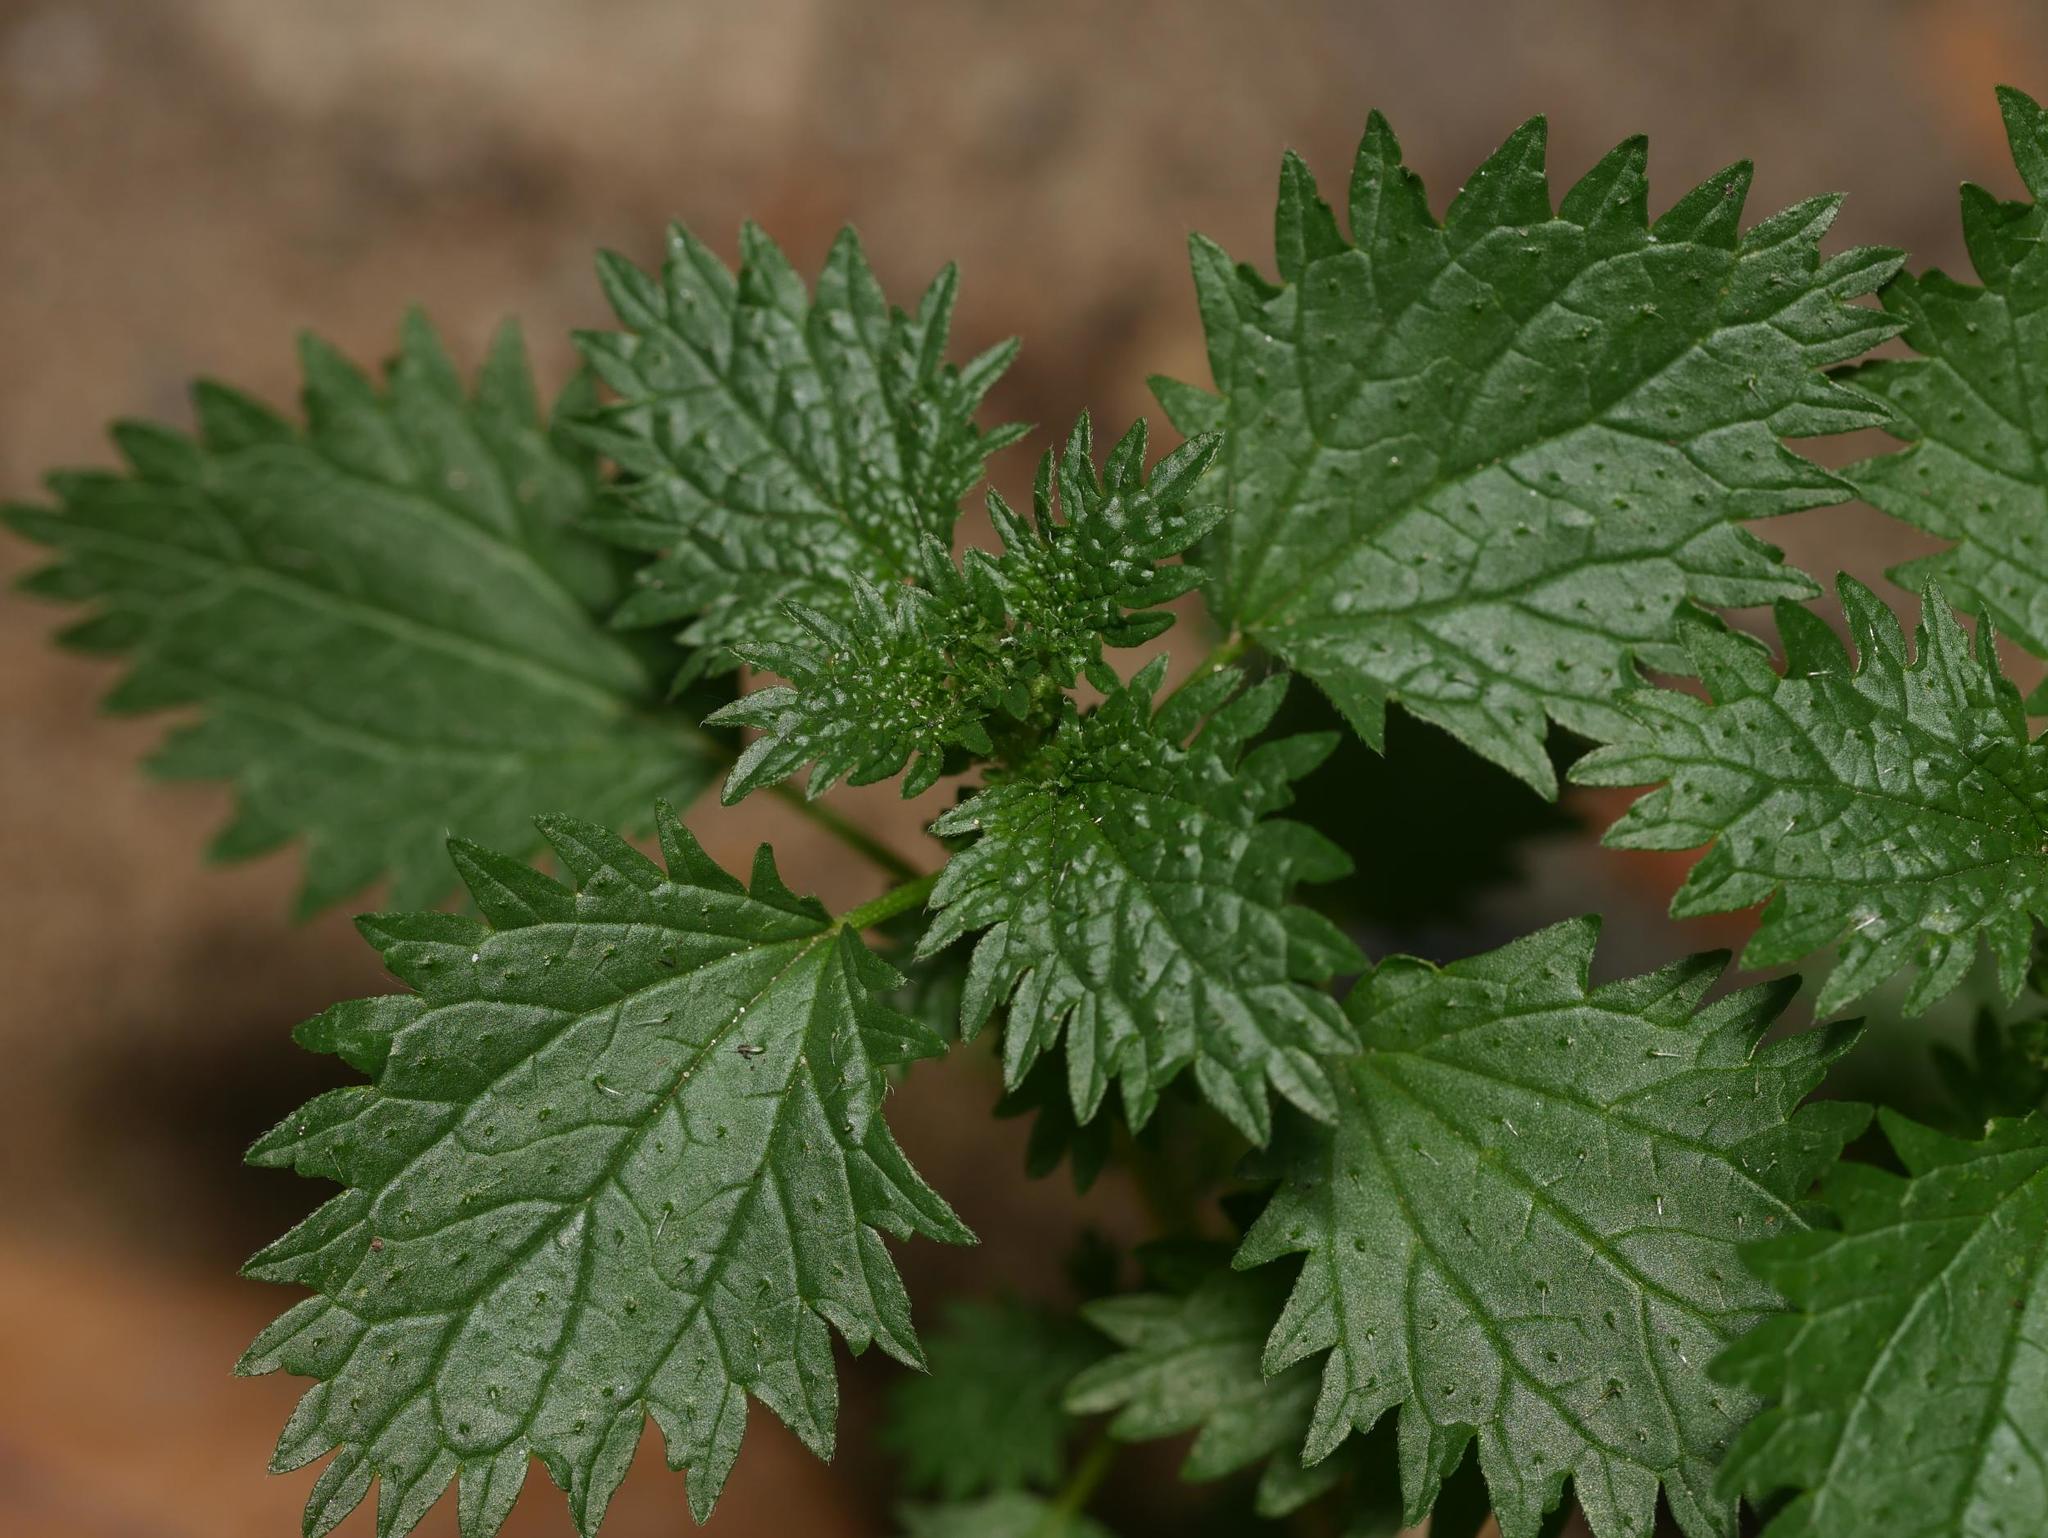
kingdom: Plantae
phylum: Tracheophyta
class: Magnoliopsida
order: Rosales
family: Urticaceae
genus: Urtica
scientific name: Urtica urens
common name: Dwarf nettle
